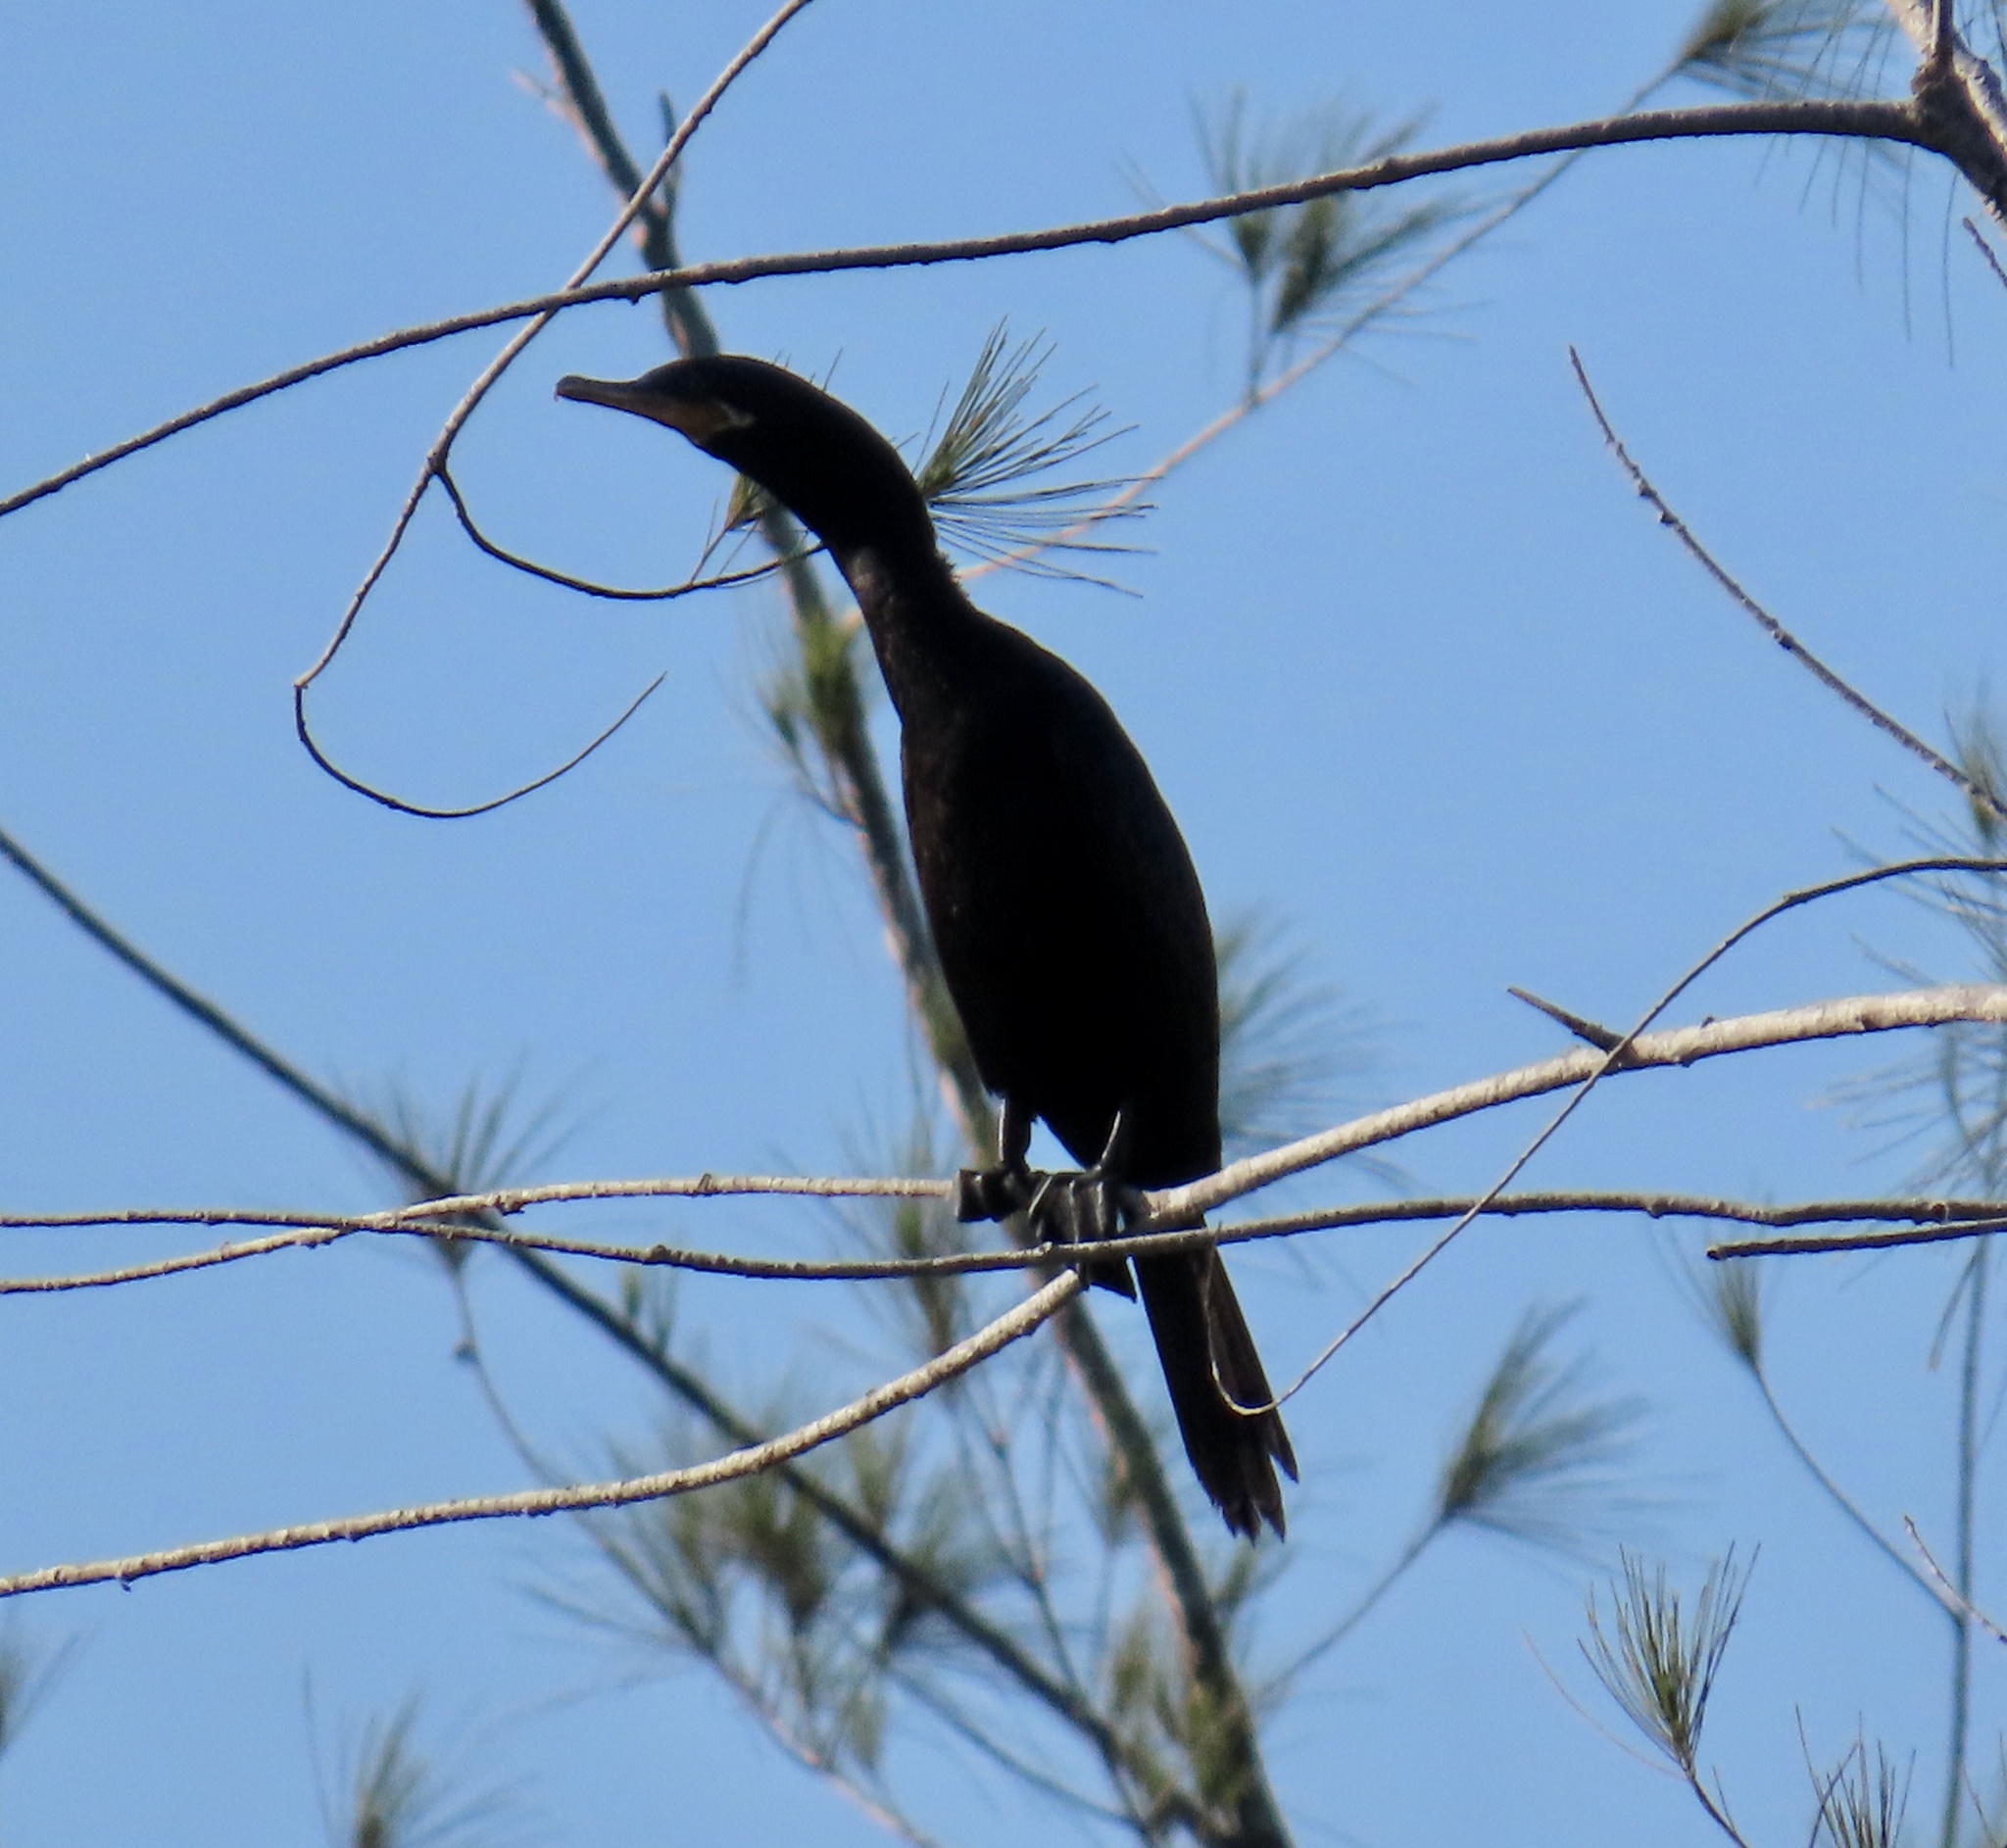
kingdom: Animalia
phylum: Chordata
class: Aves
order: Suliformes
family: Phalacrocoracidae
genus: Phalacrocorax
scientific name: Phalacrocorax brasilianus
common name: Neotropic cormorant
